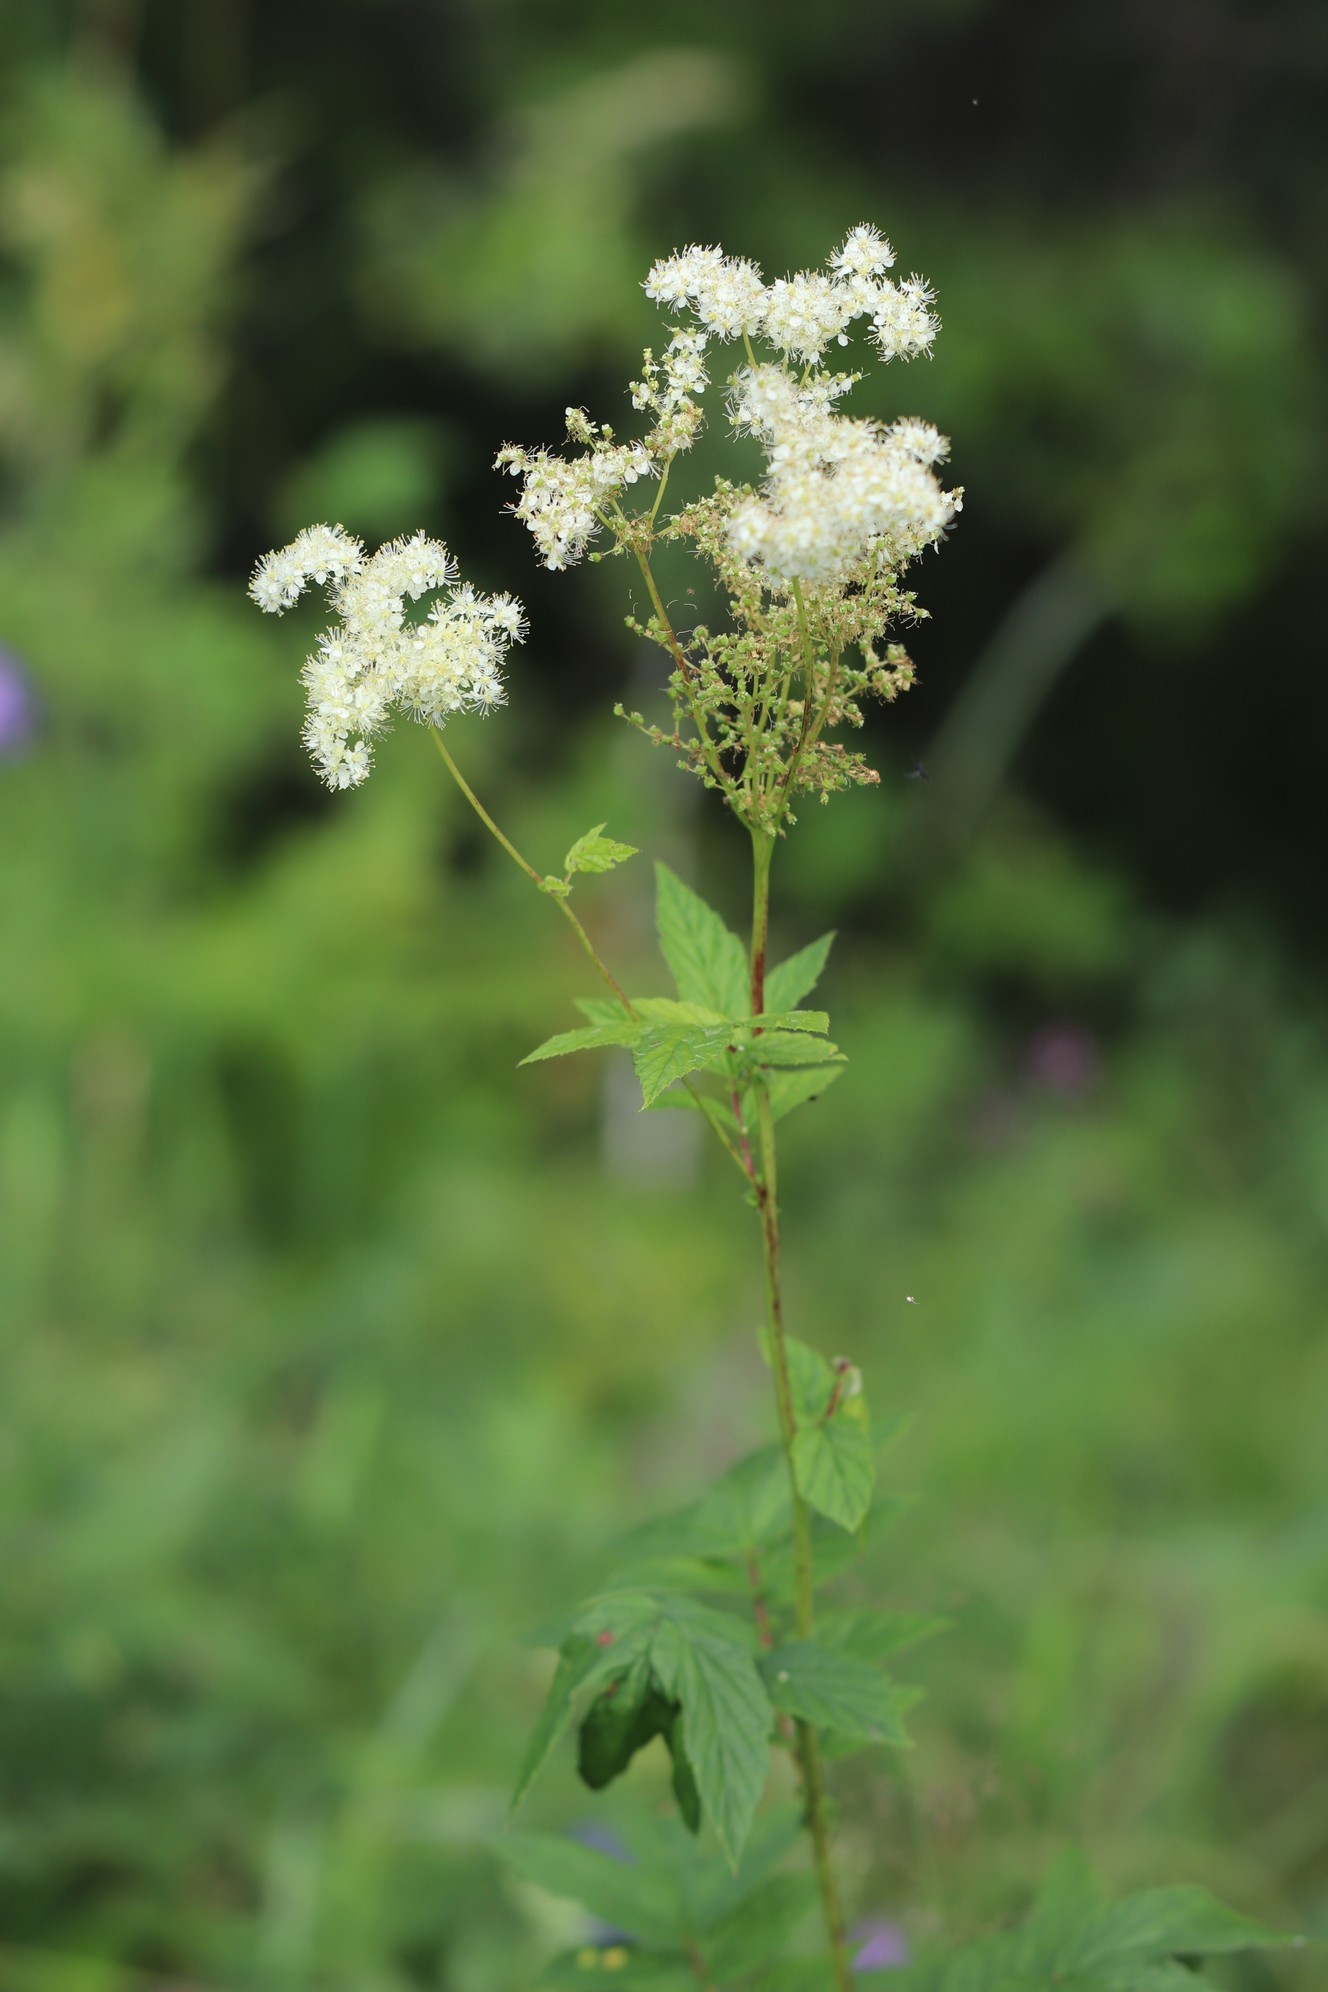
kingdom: Plantae
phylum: Tracheophyta
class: Magnoliopsida
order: Rosales
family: Rosaceae
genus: Filipendula
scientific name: Filipendula ulmaria
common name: Meadowsweet
